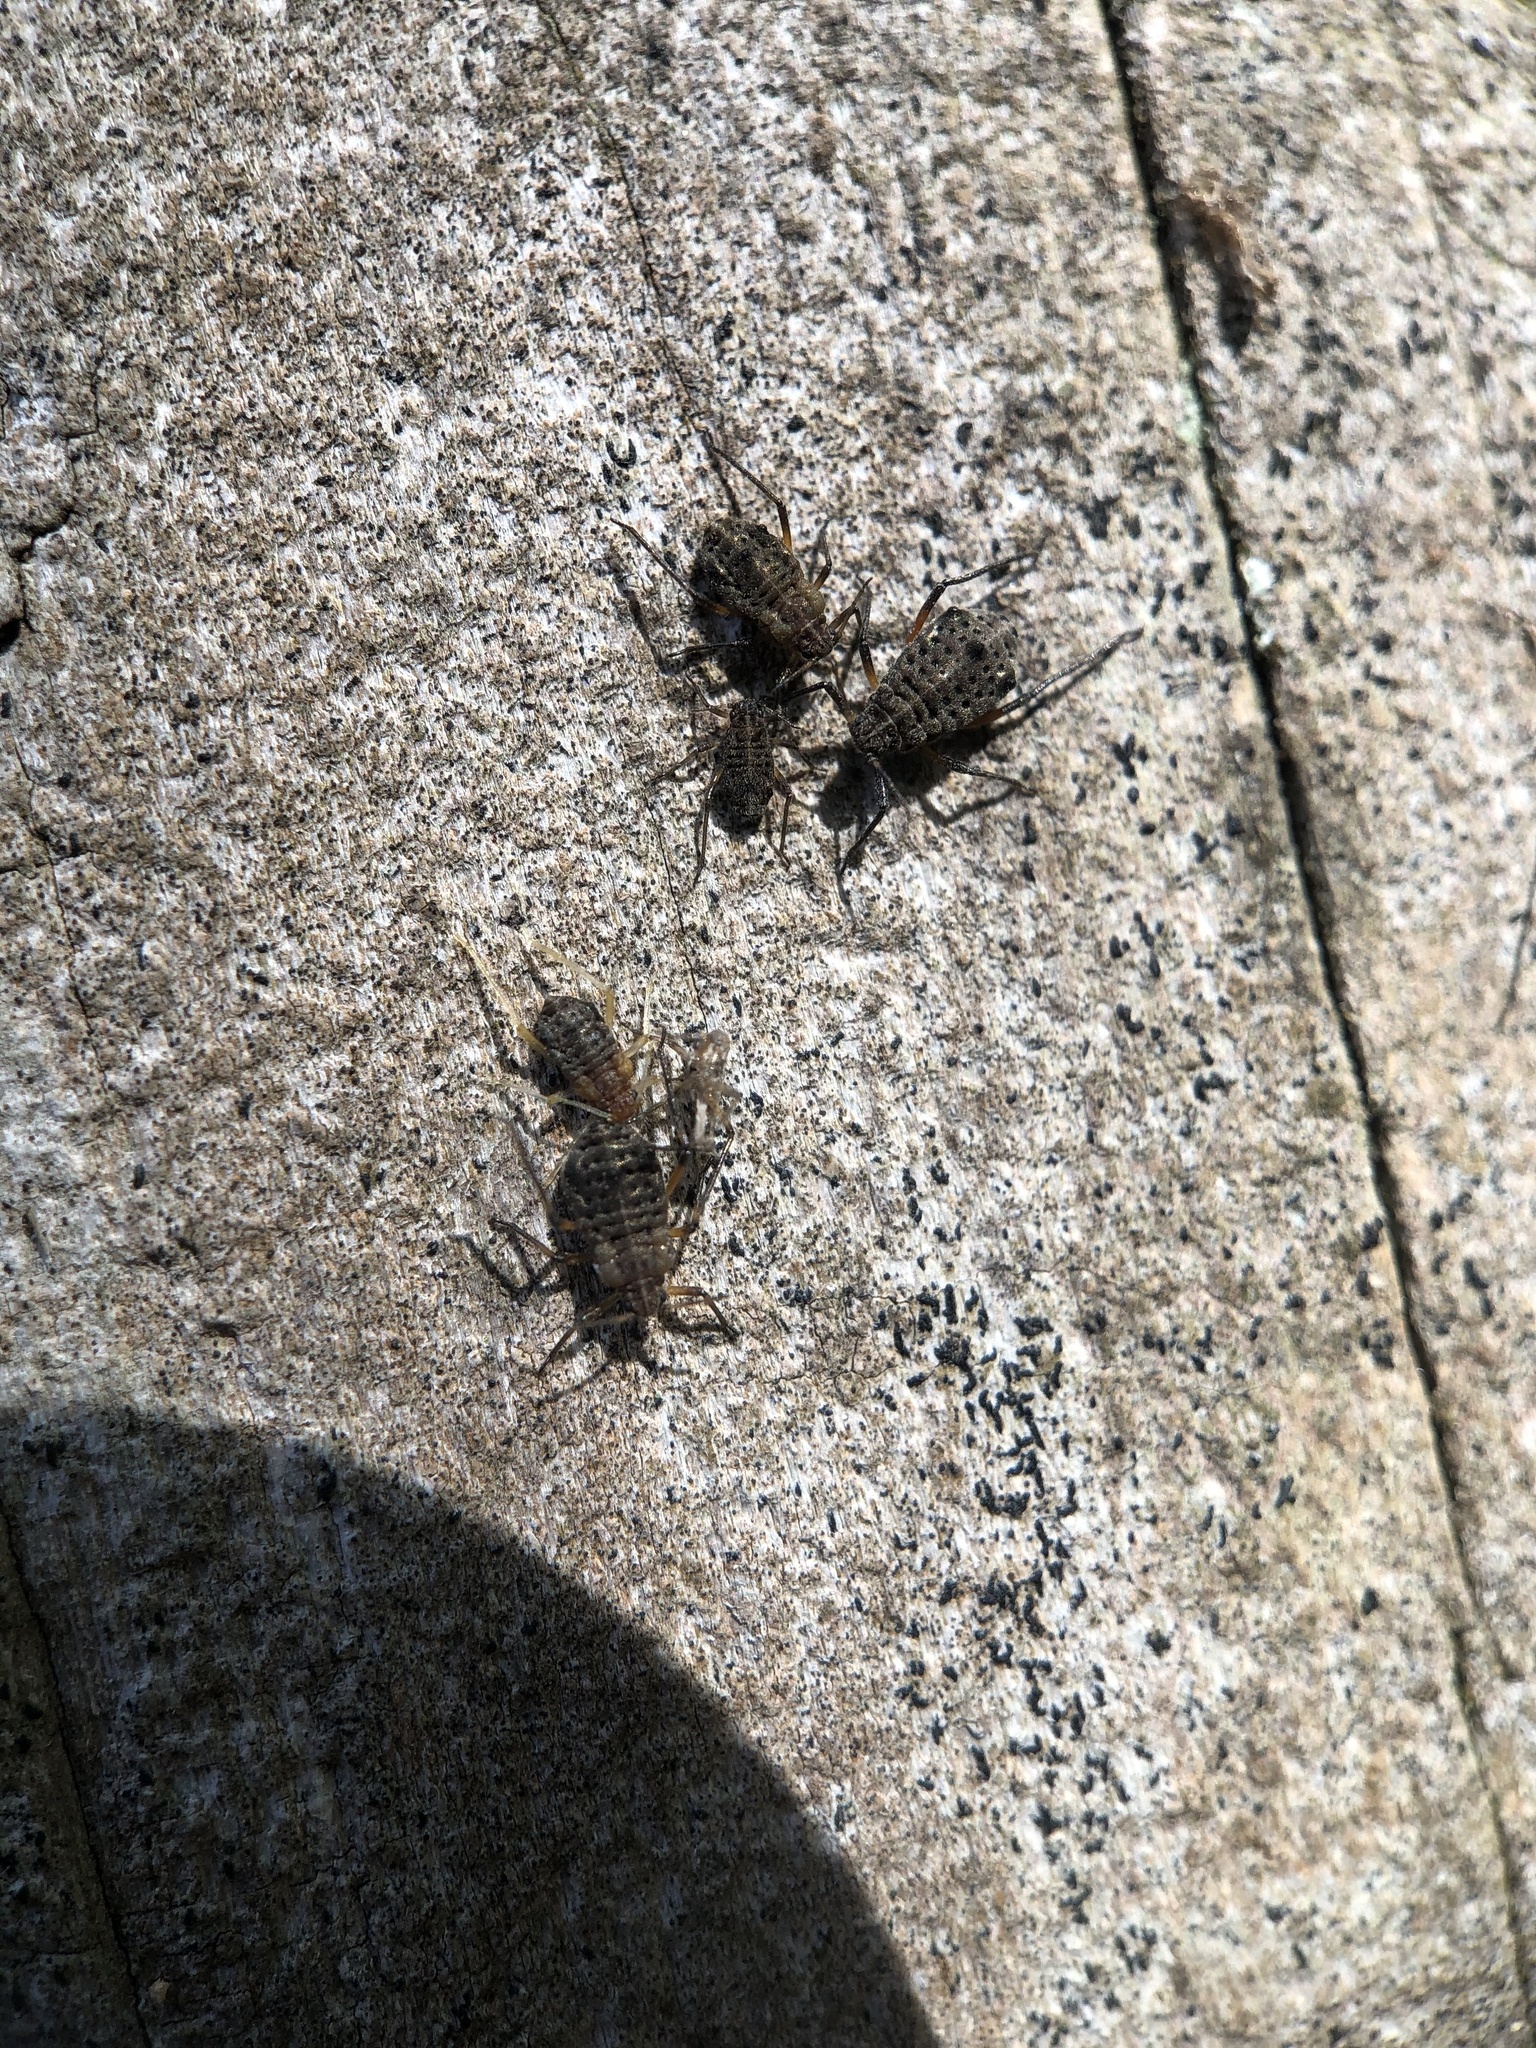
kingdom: Animalia
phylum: Arthropoda
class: Insecta
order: Hemiptera
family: Aphididae
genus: Tuberolachnus
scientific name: Tuberolachnus salignus
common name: Giant willow aphid
